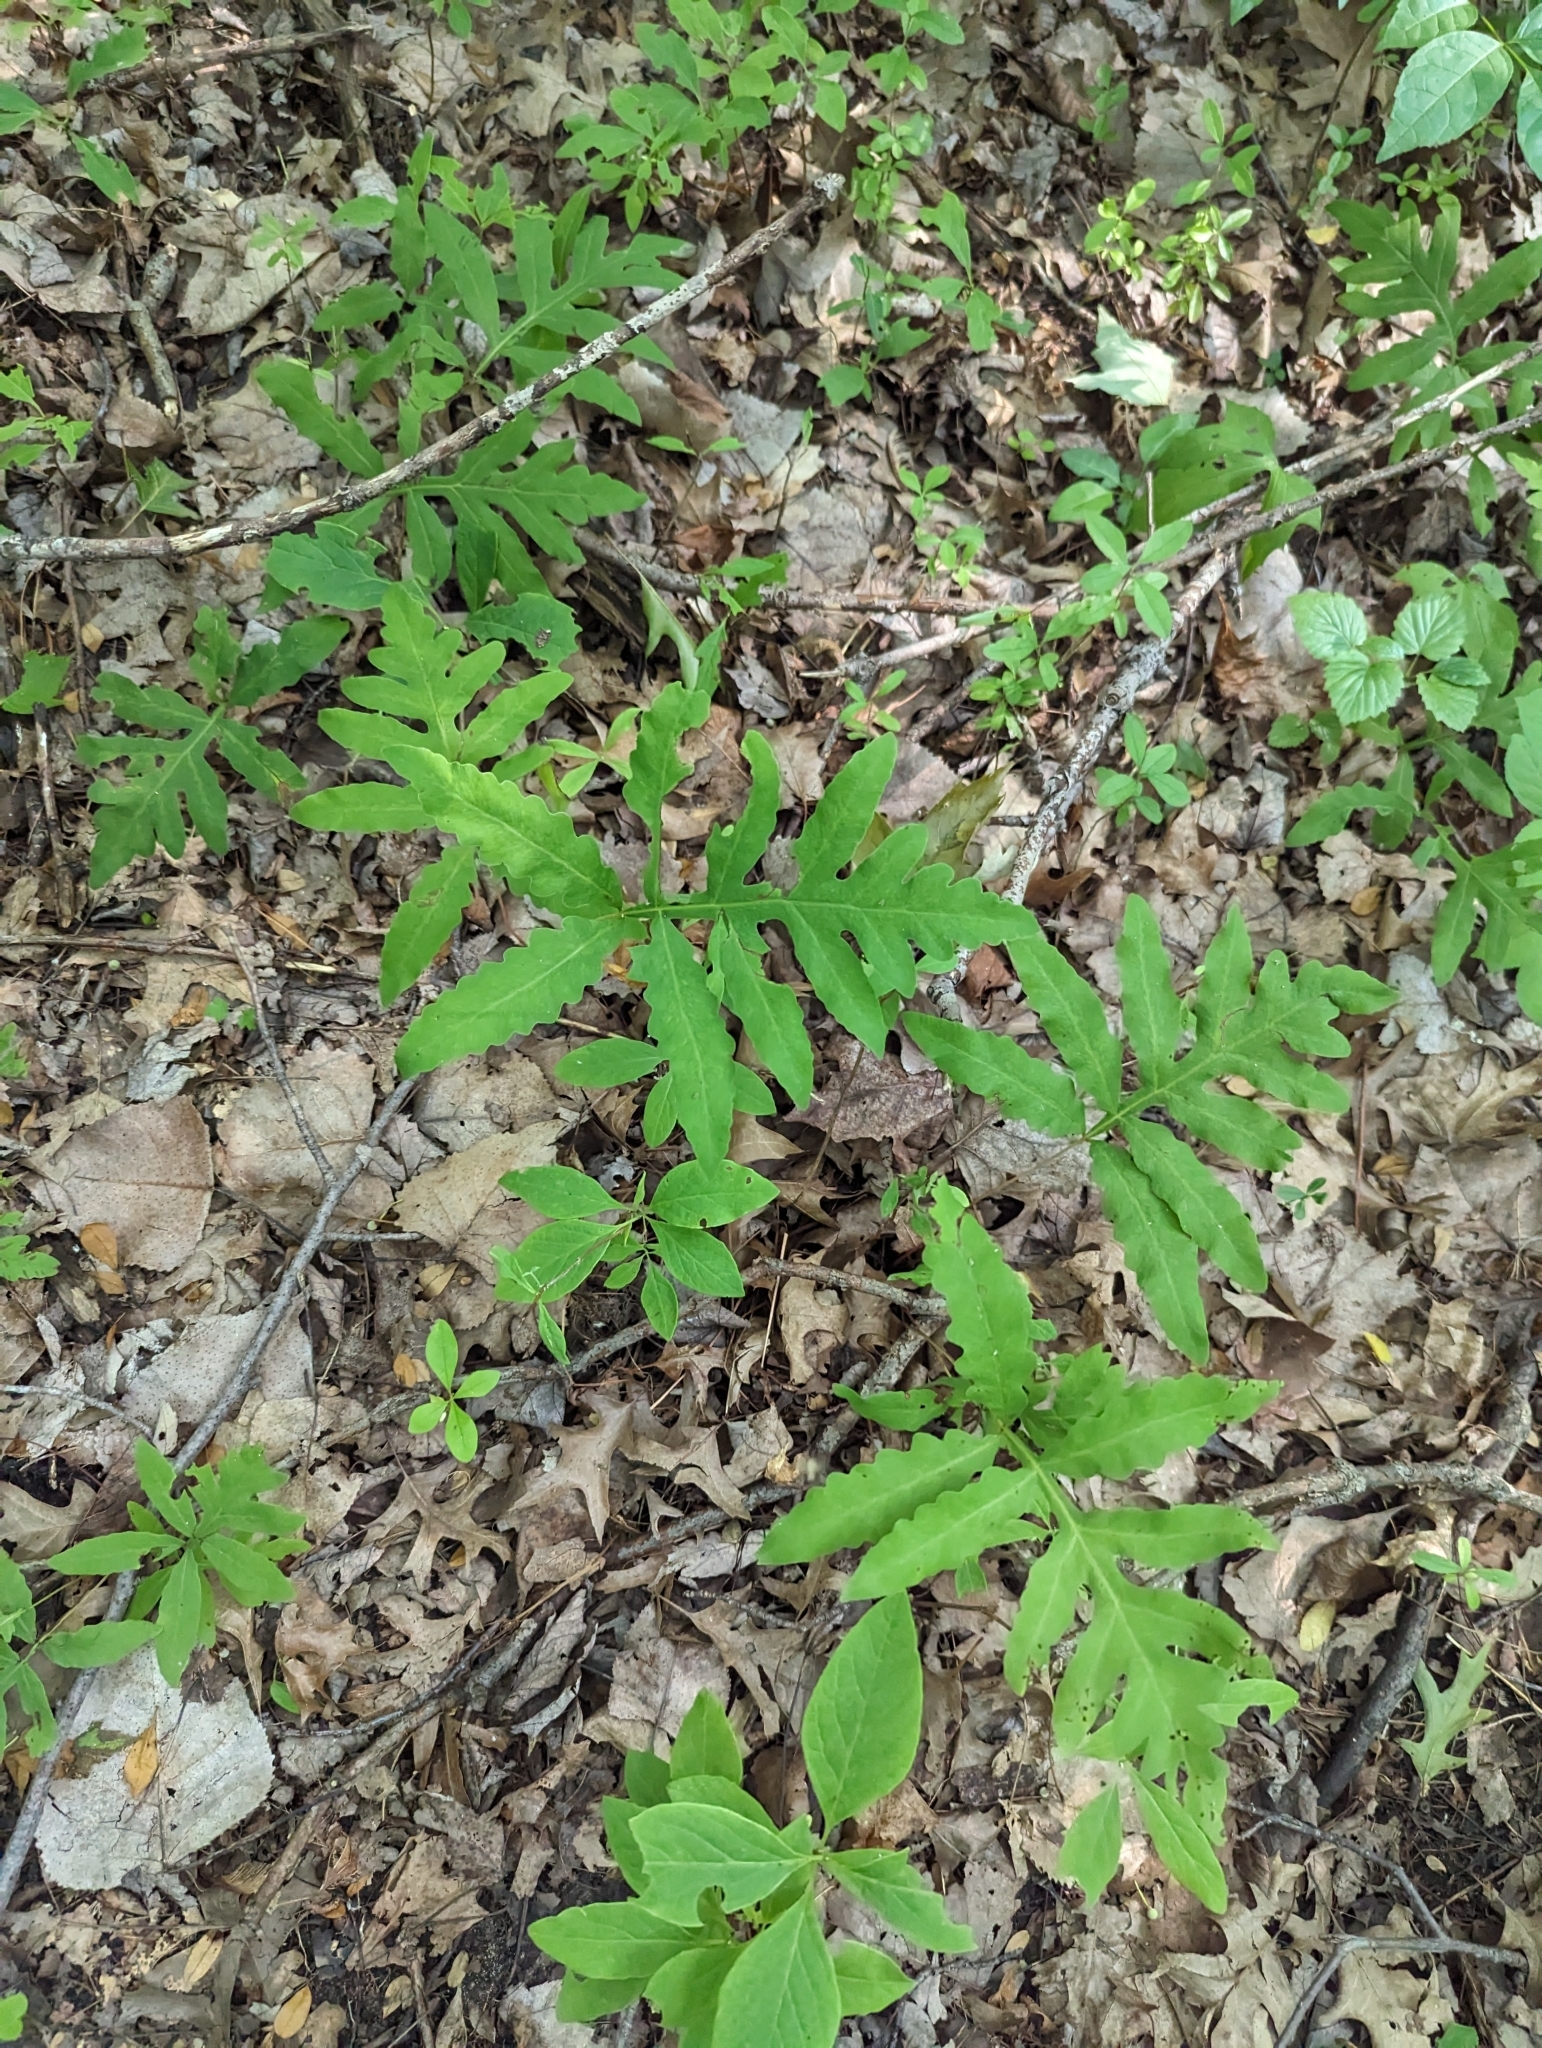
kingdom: Plantae
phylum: Tracheophyta
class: Polypodiopsida
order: Polypodiales
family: Onocleaceae
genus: Onoclea
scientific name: Onoclea sensibilis
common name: Sensitive fern
